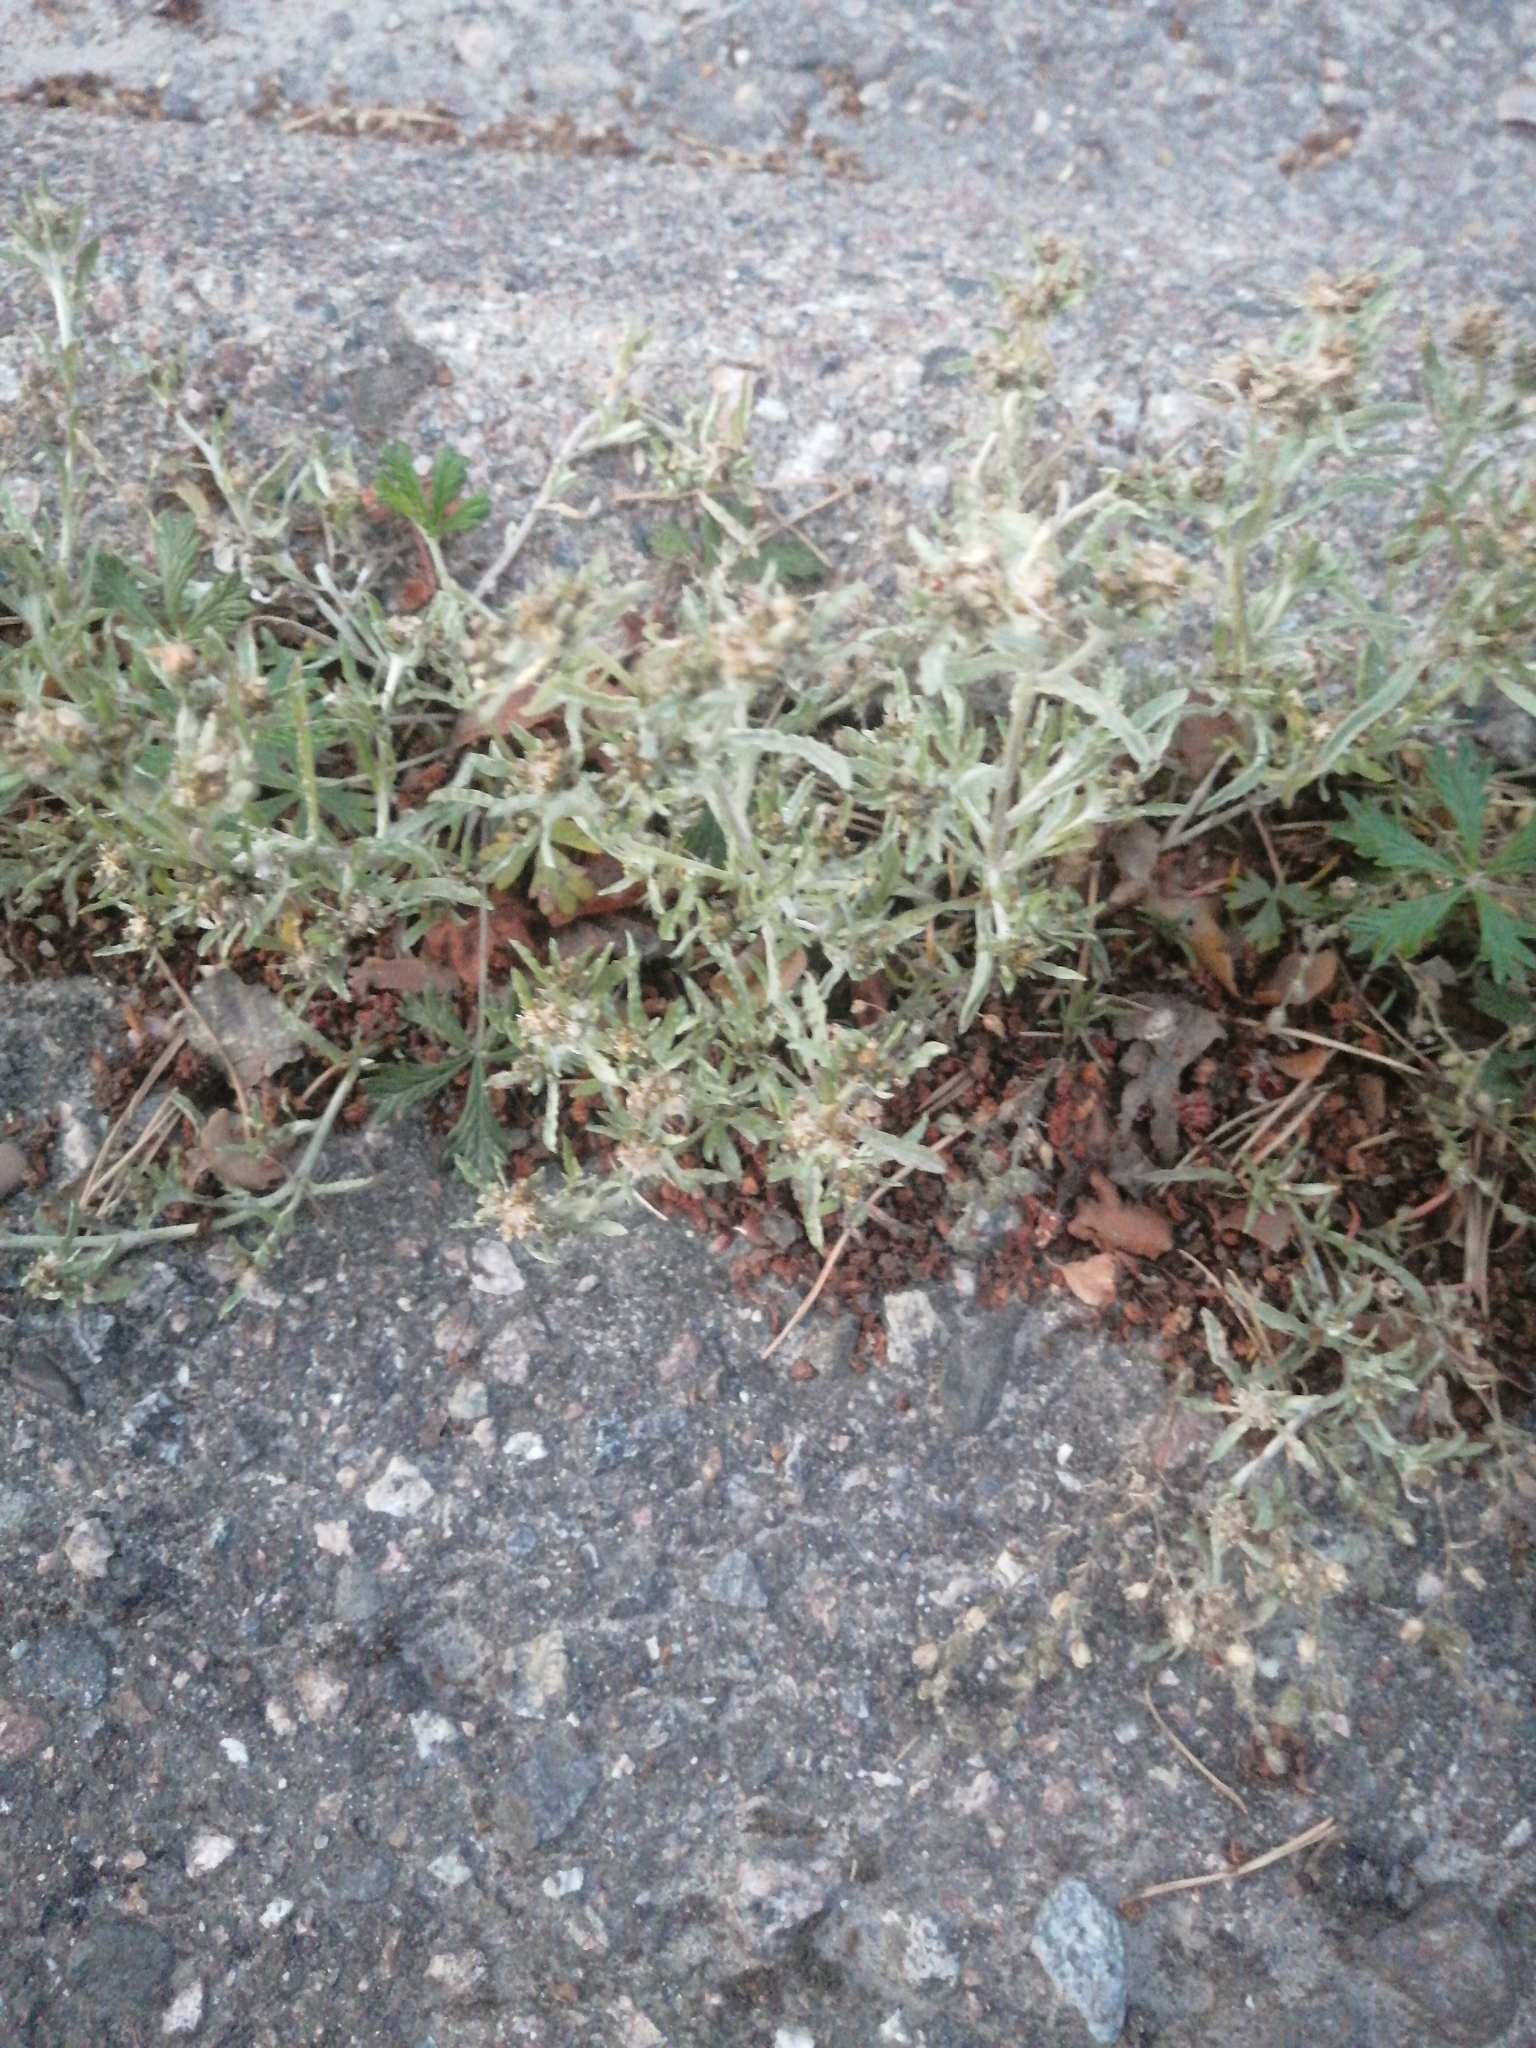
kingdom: Plantae
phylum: Tracheophyta
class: Magnoliopsida
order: Asterales
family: Asteraceae
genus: Gnaphalium
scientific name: Gnaphalium uliginosum
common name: Marsh cudweed
